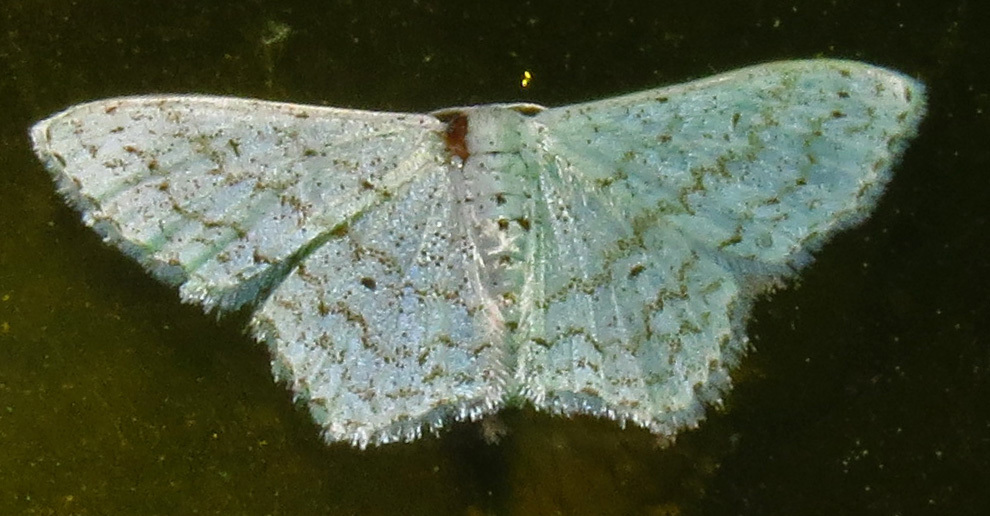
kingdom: Animalia
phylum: Arthropoda
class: Insecta
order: Lepidoptera
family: Geometridae
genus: Idaea
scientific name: Idaea tacturata
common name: Dot-lined wave
